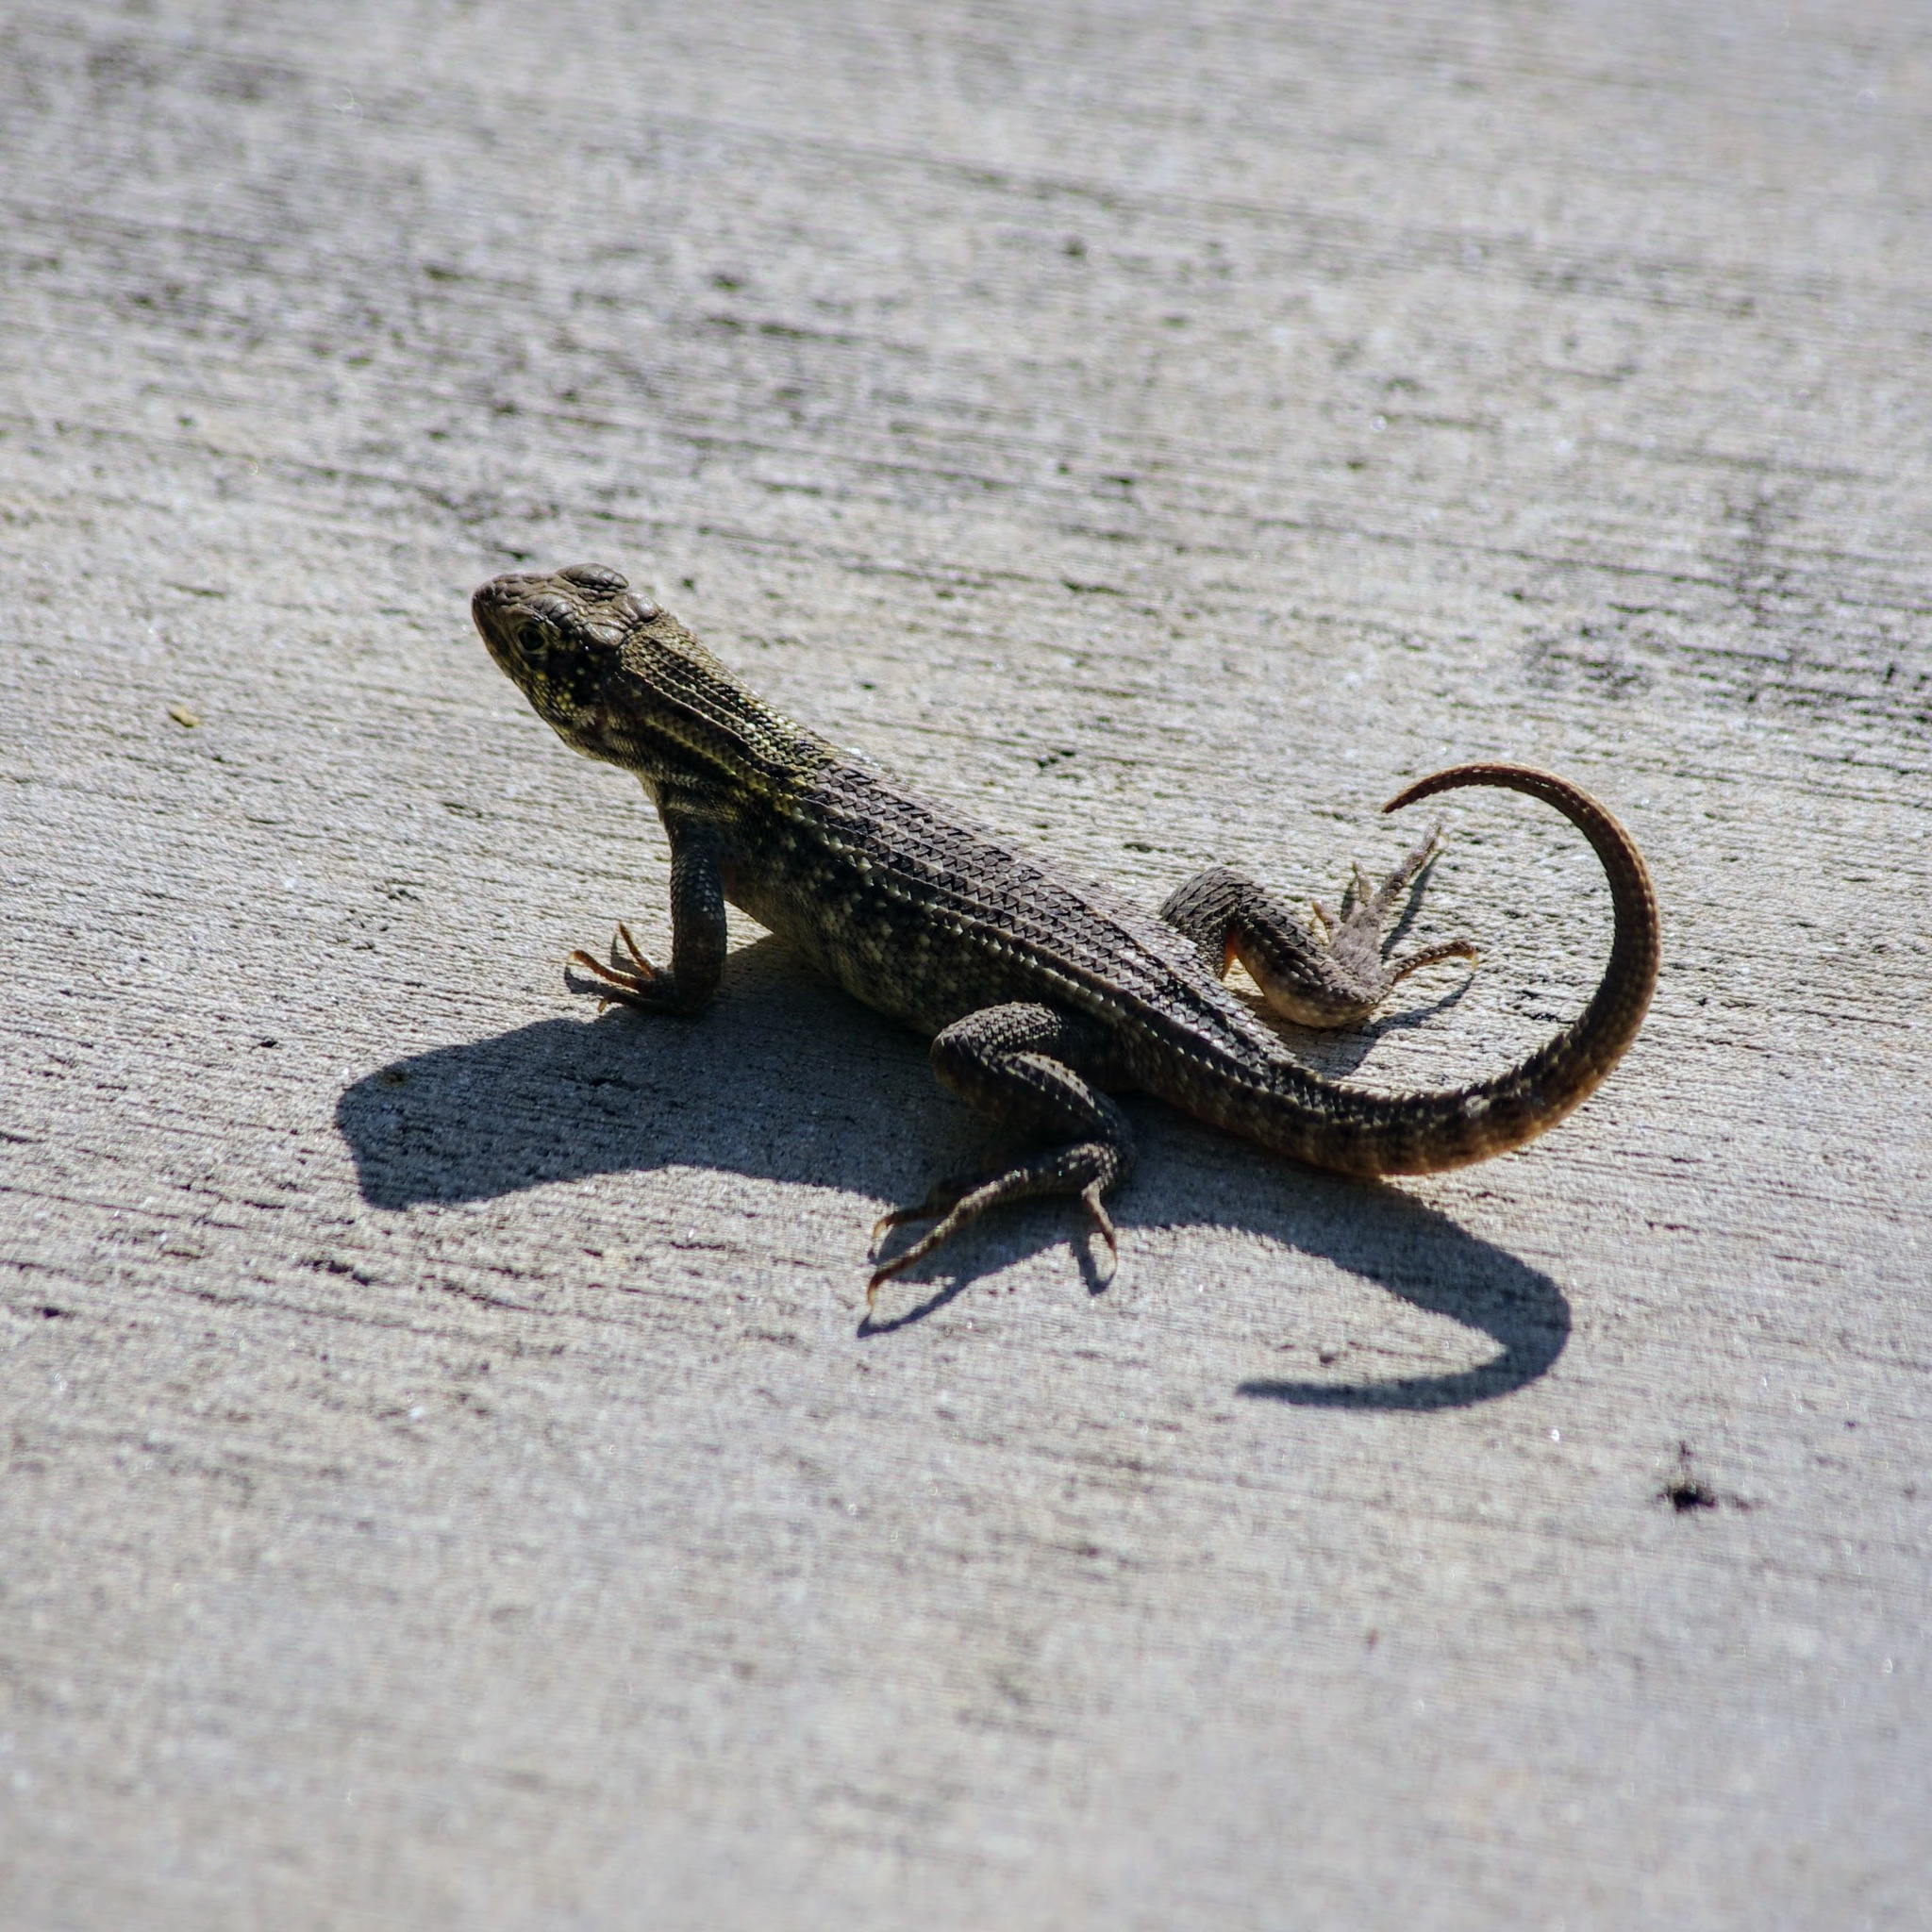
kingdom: Animalia
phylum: Chordata
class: Squamata
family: Leiocephalidae
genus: Leiocephalus
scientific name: Leiocephalus carinatus
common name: Northern curly-tailed lizard
